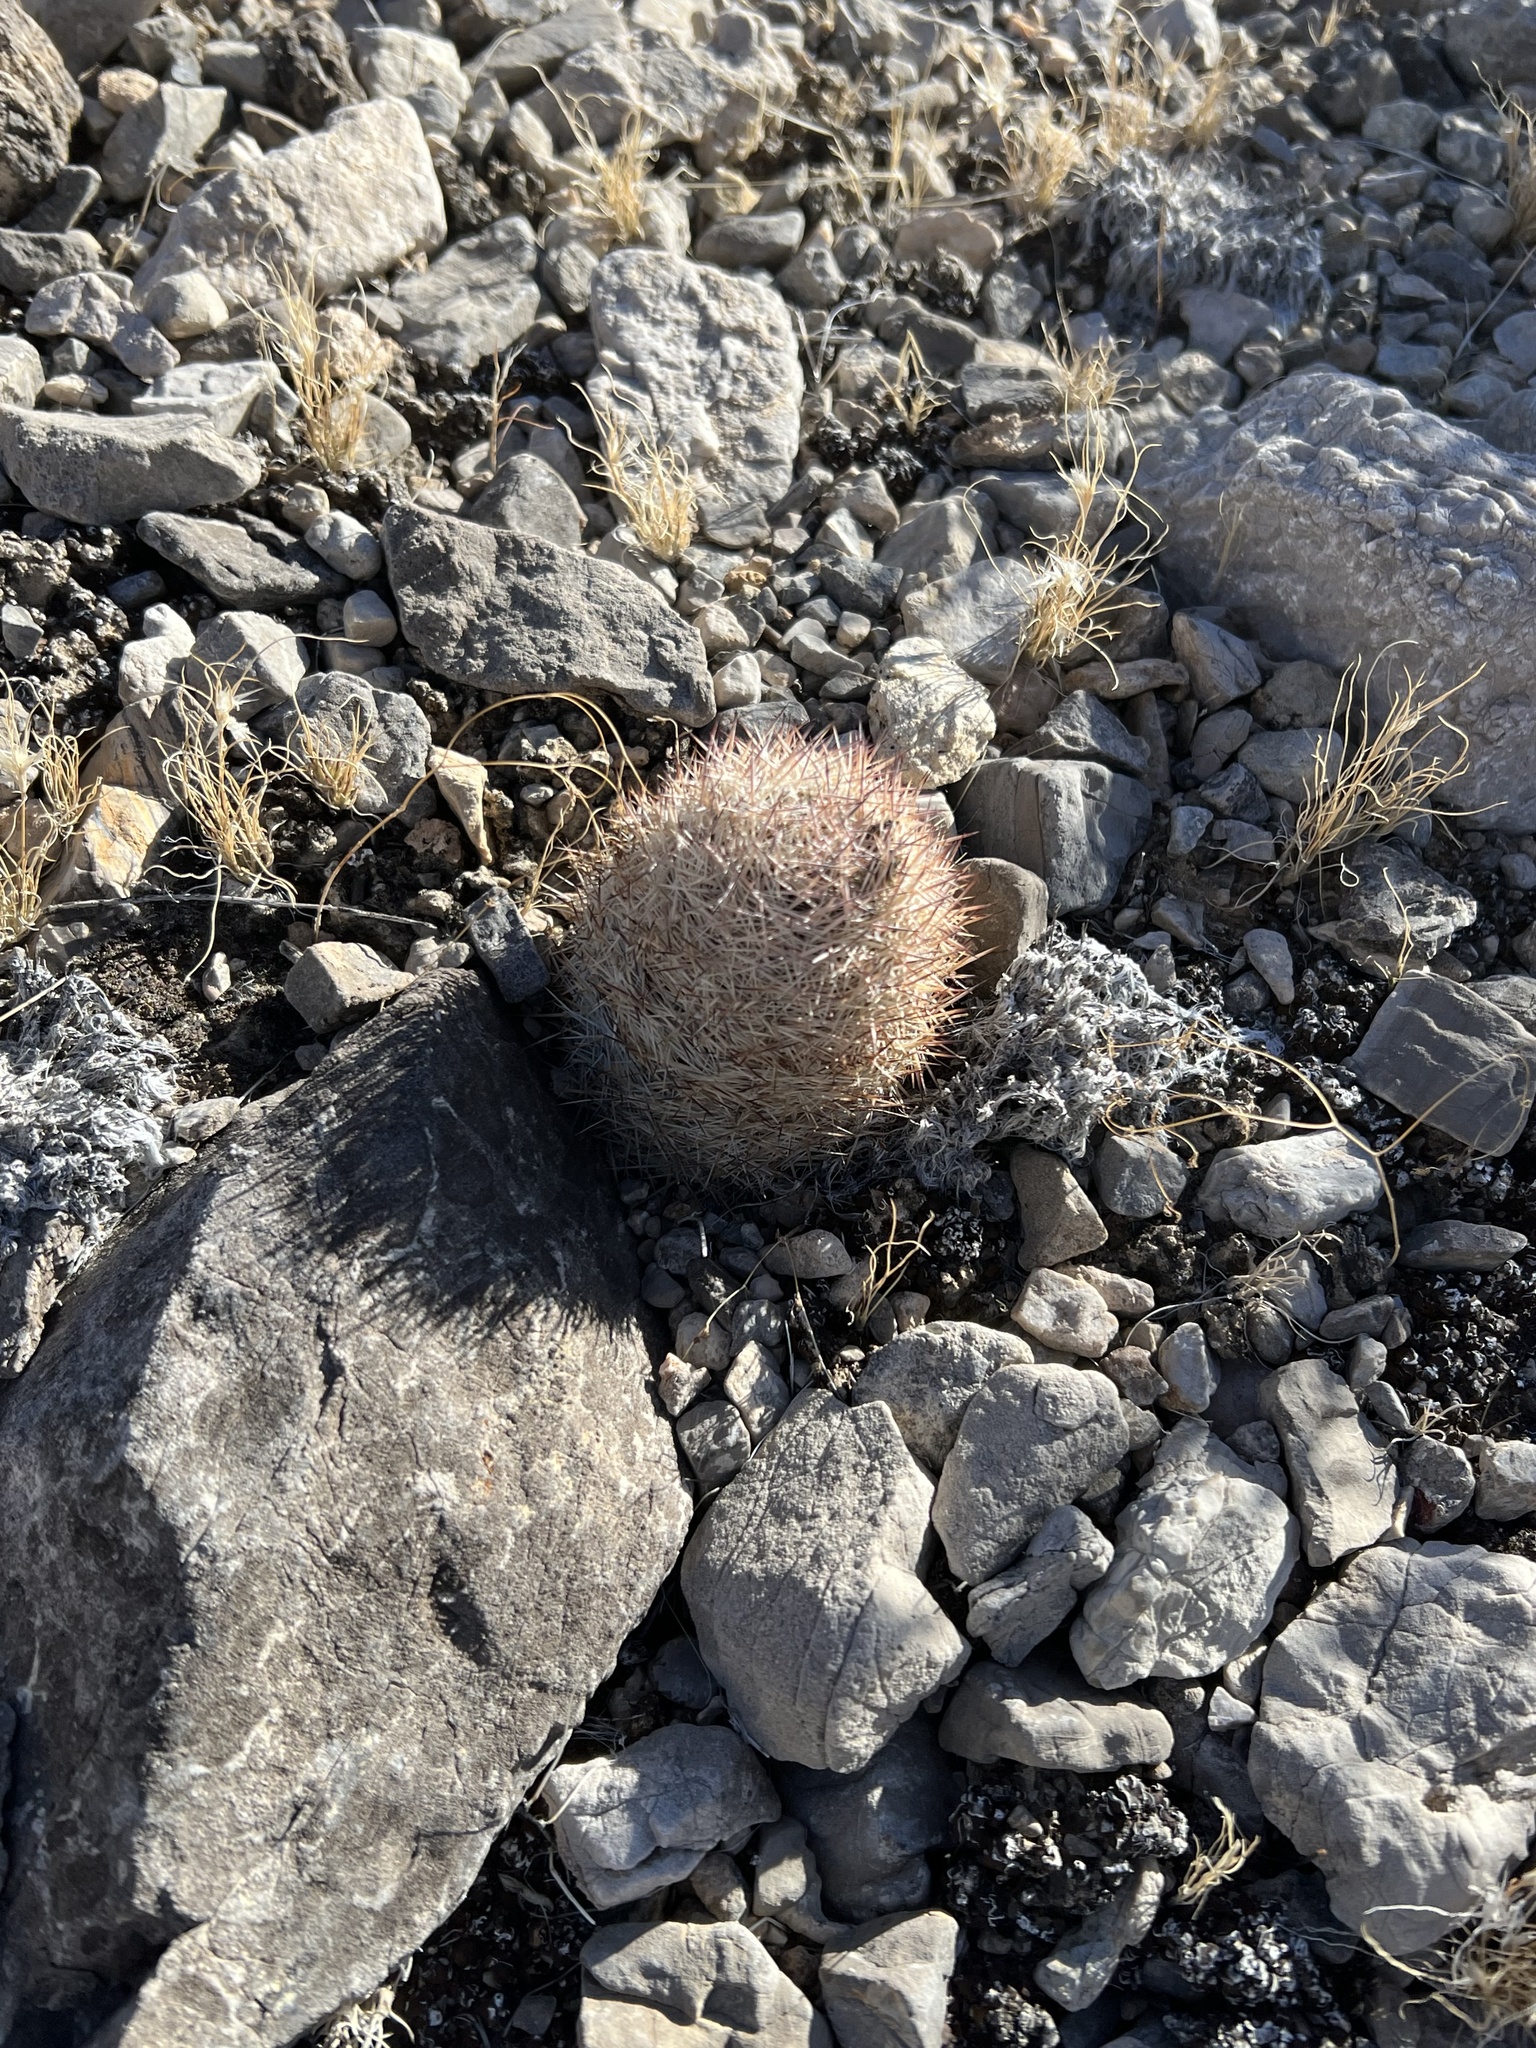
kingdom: Plantae
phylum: Tracheophyta
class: Magnoliopsida
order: Caryophyllales
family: Cactaceae
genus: Pelecyphora
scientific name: Pelecyphora dasyacantha
